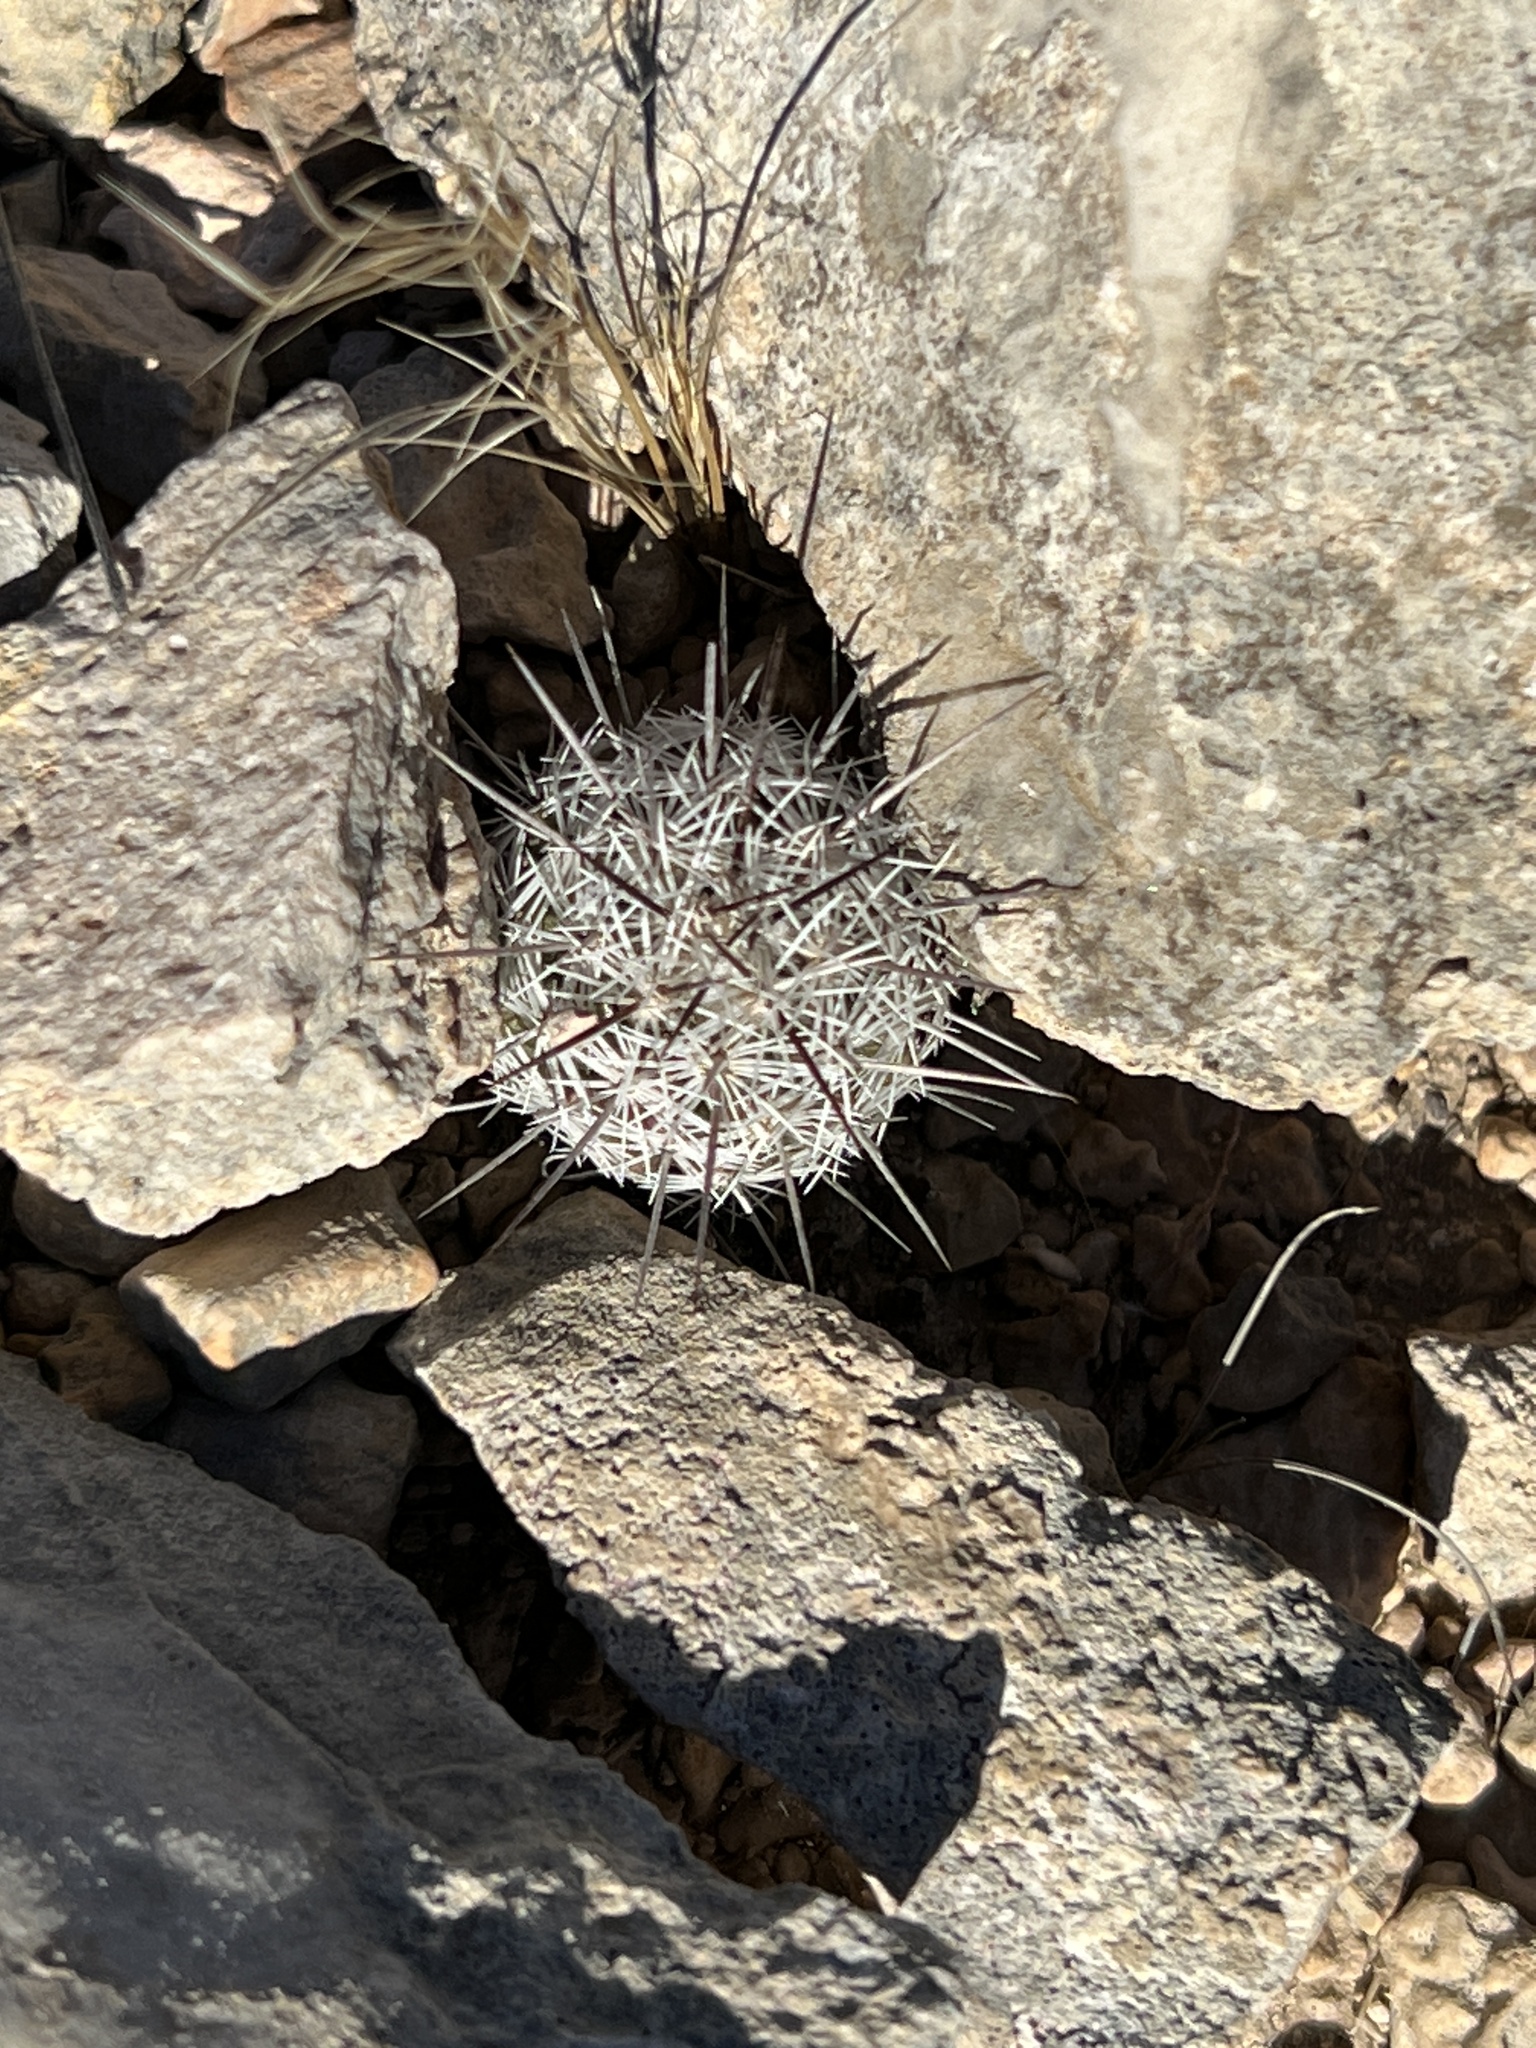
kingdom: Plantae
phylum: Tracheophyta
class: Magnoliopsida
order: Caryophyllales
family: Cactaceae
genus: Cochemiea
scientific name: Cochemiea conoidea
